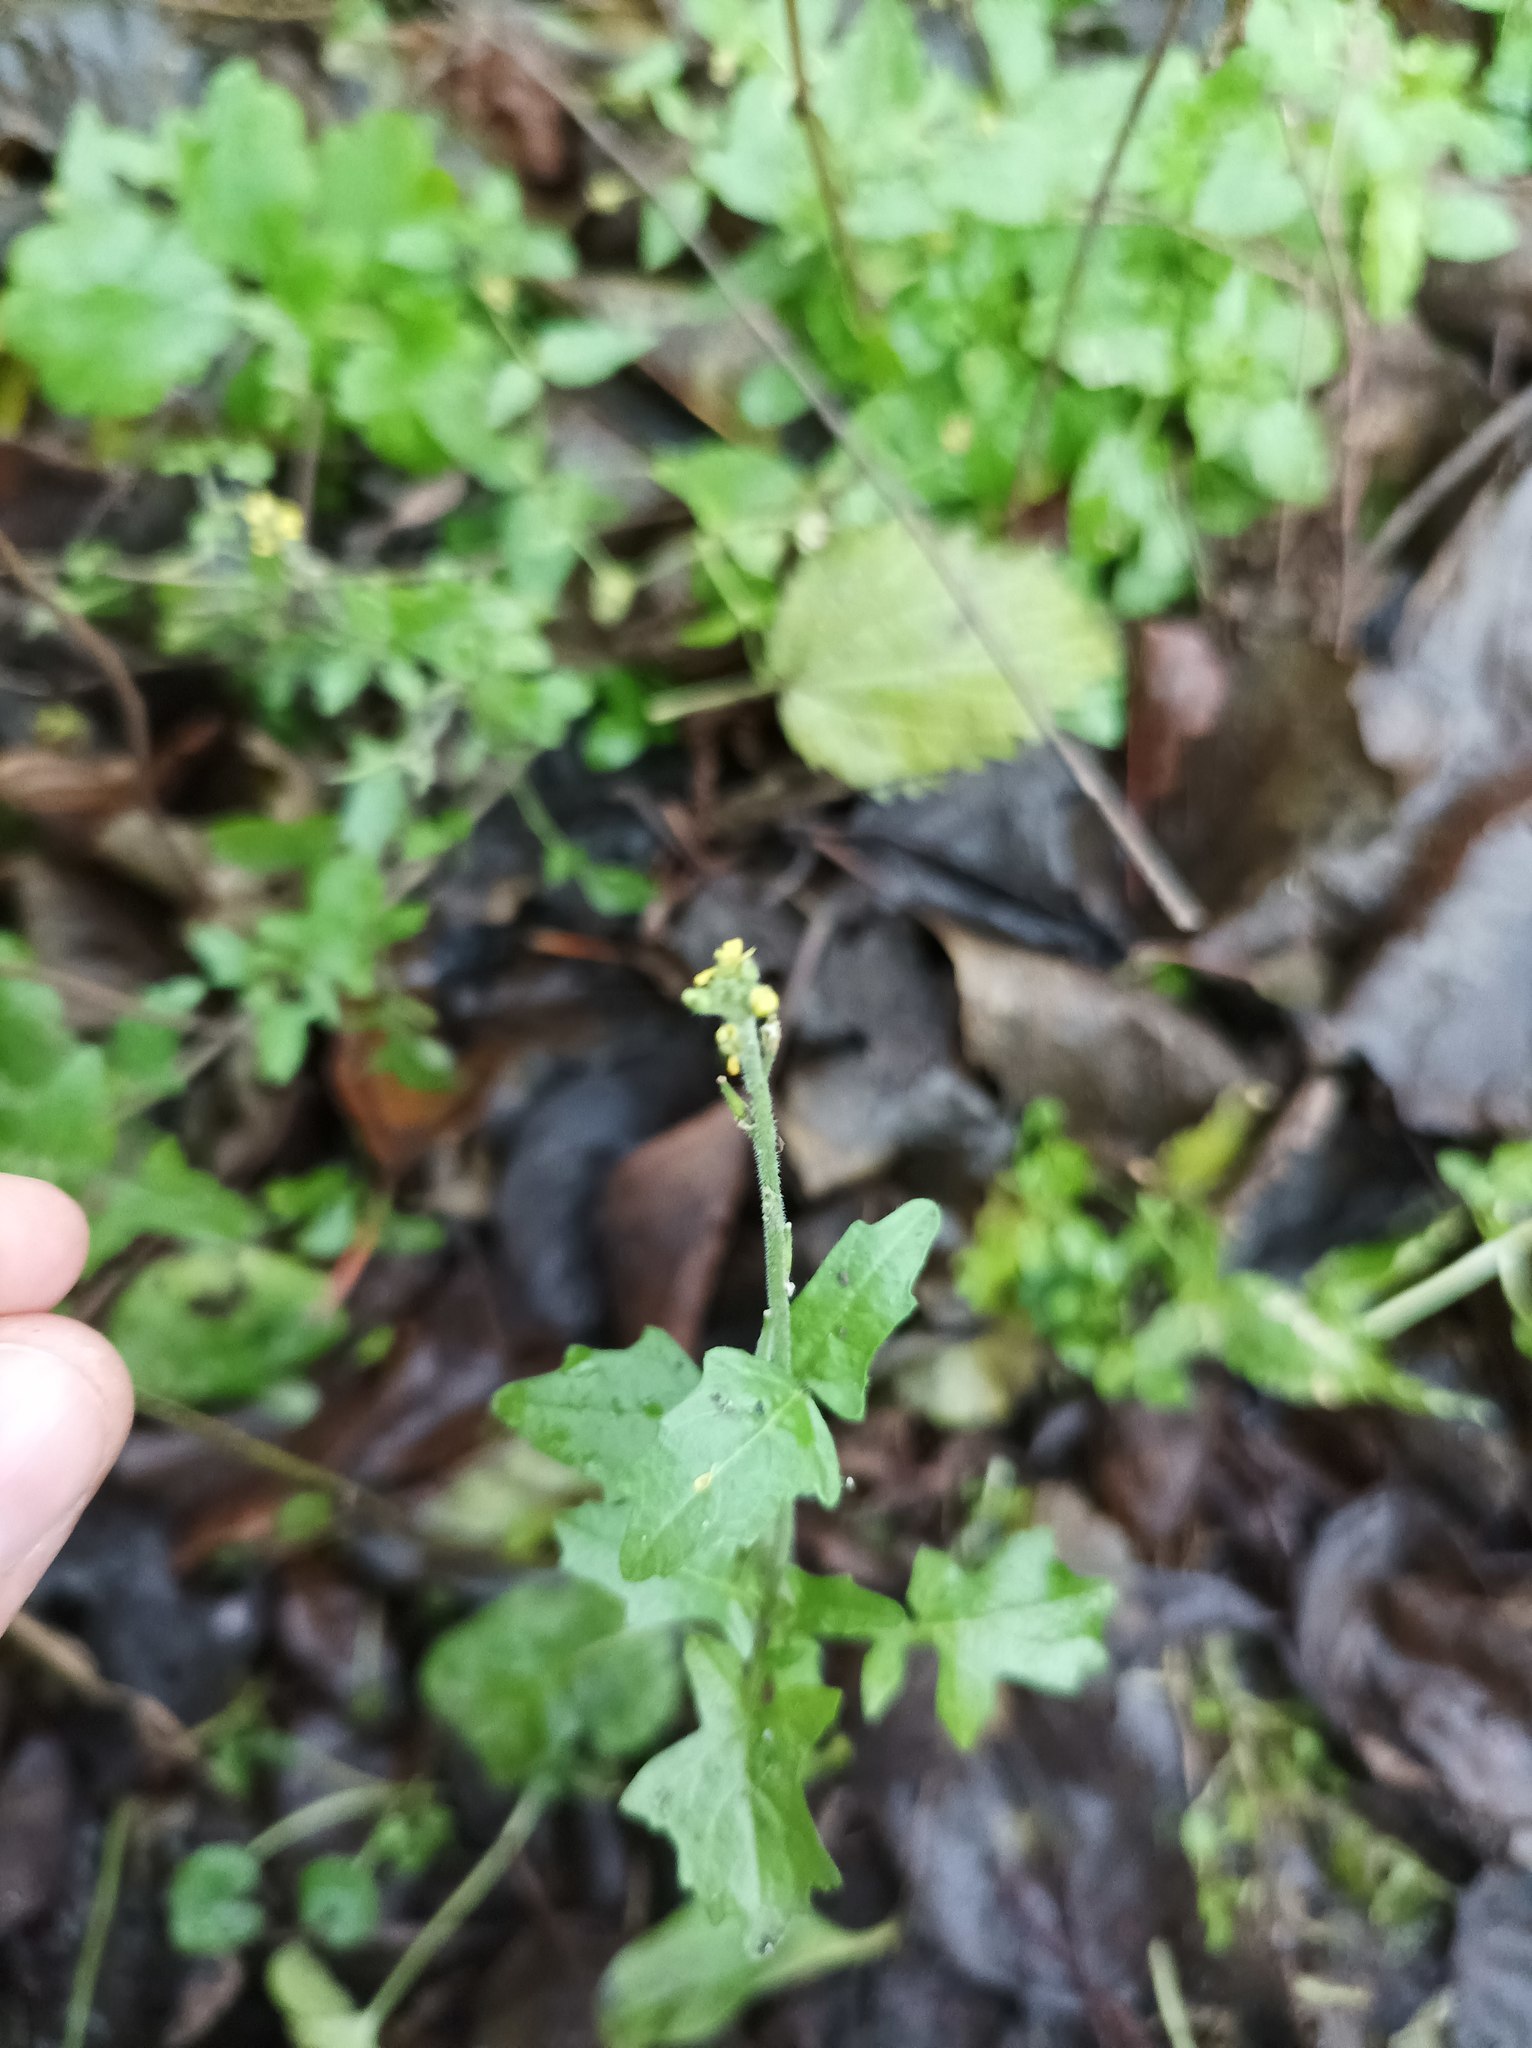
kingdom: Plantae
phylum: Tracheophyta
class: Magnoliopsida
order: Brassicales
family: Brassicaceae
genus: Sisymbrium
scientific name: Sisymbrium officinale
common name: Hedge mustard
